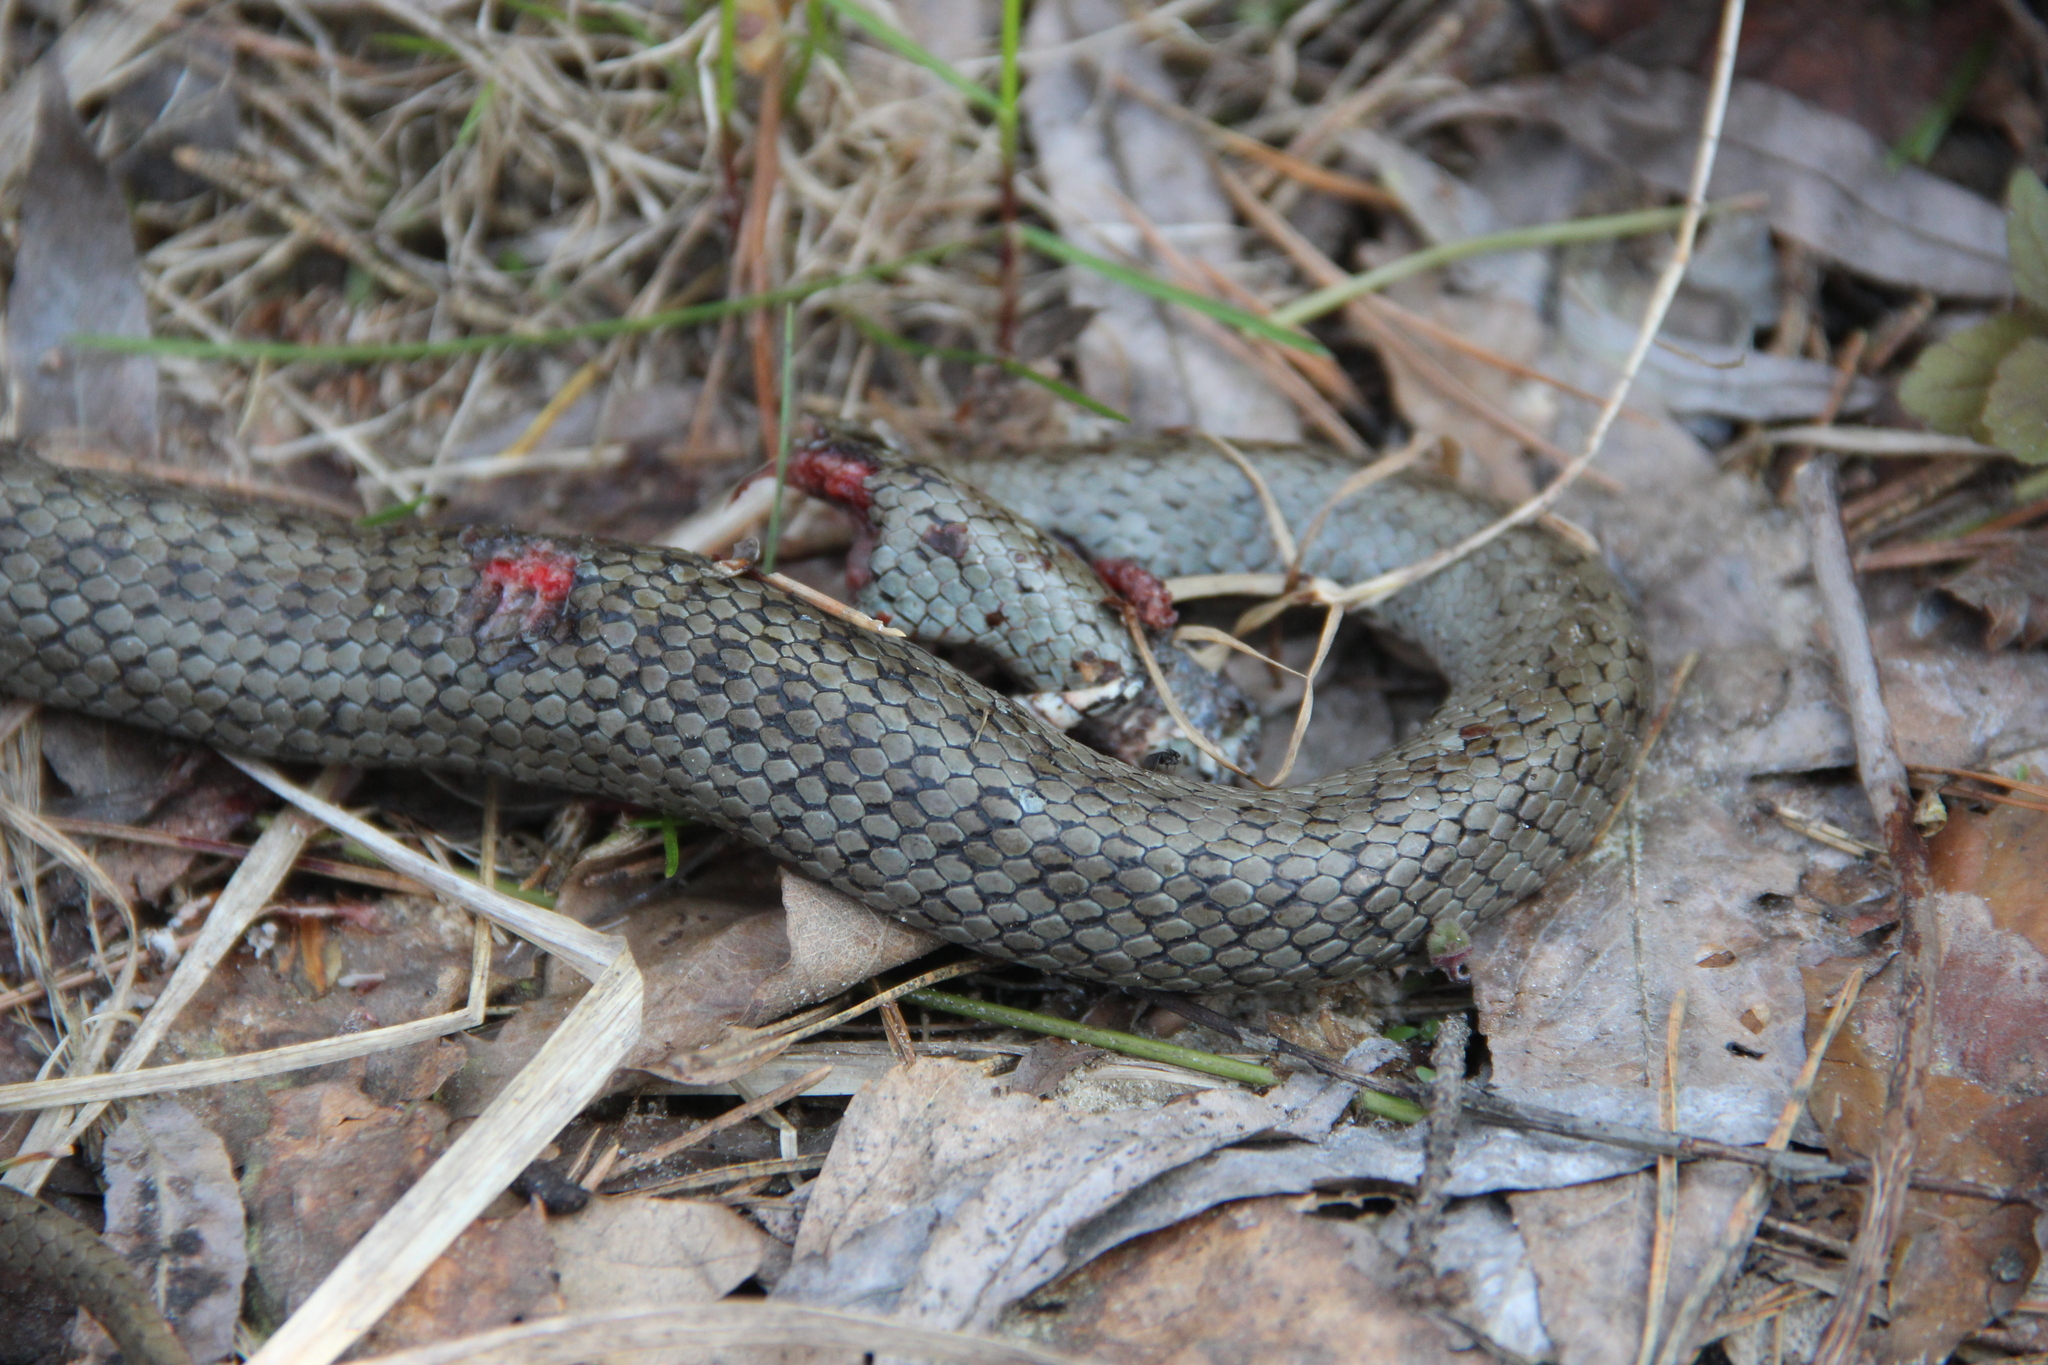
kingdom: Animalia
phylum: Chordata
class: Squamata
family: Colubridae
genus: Coronella
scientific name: Coronella austriaca
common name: Smooth snake
